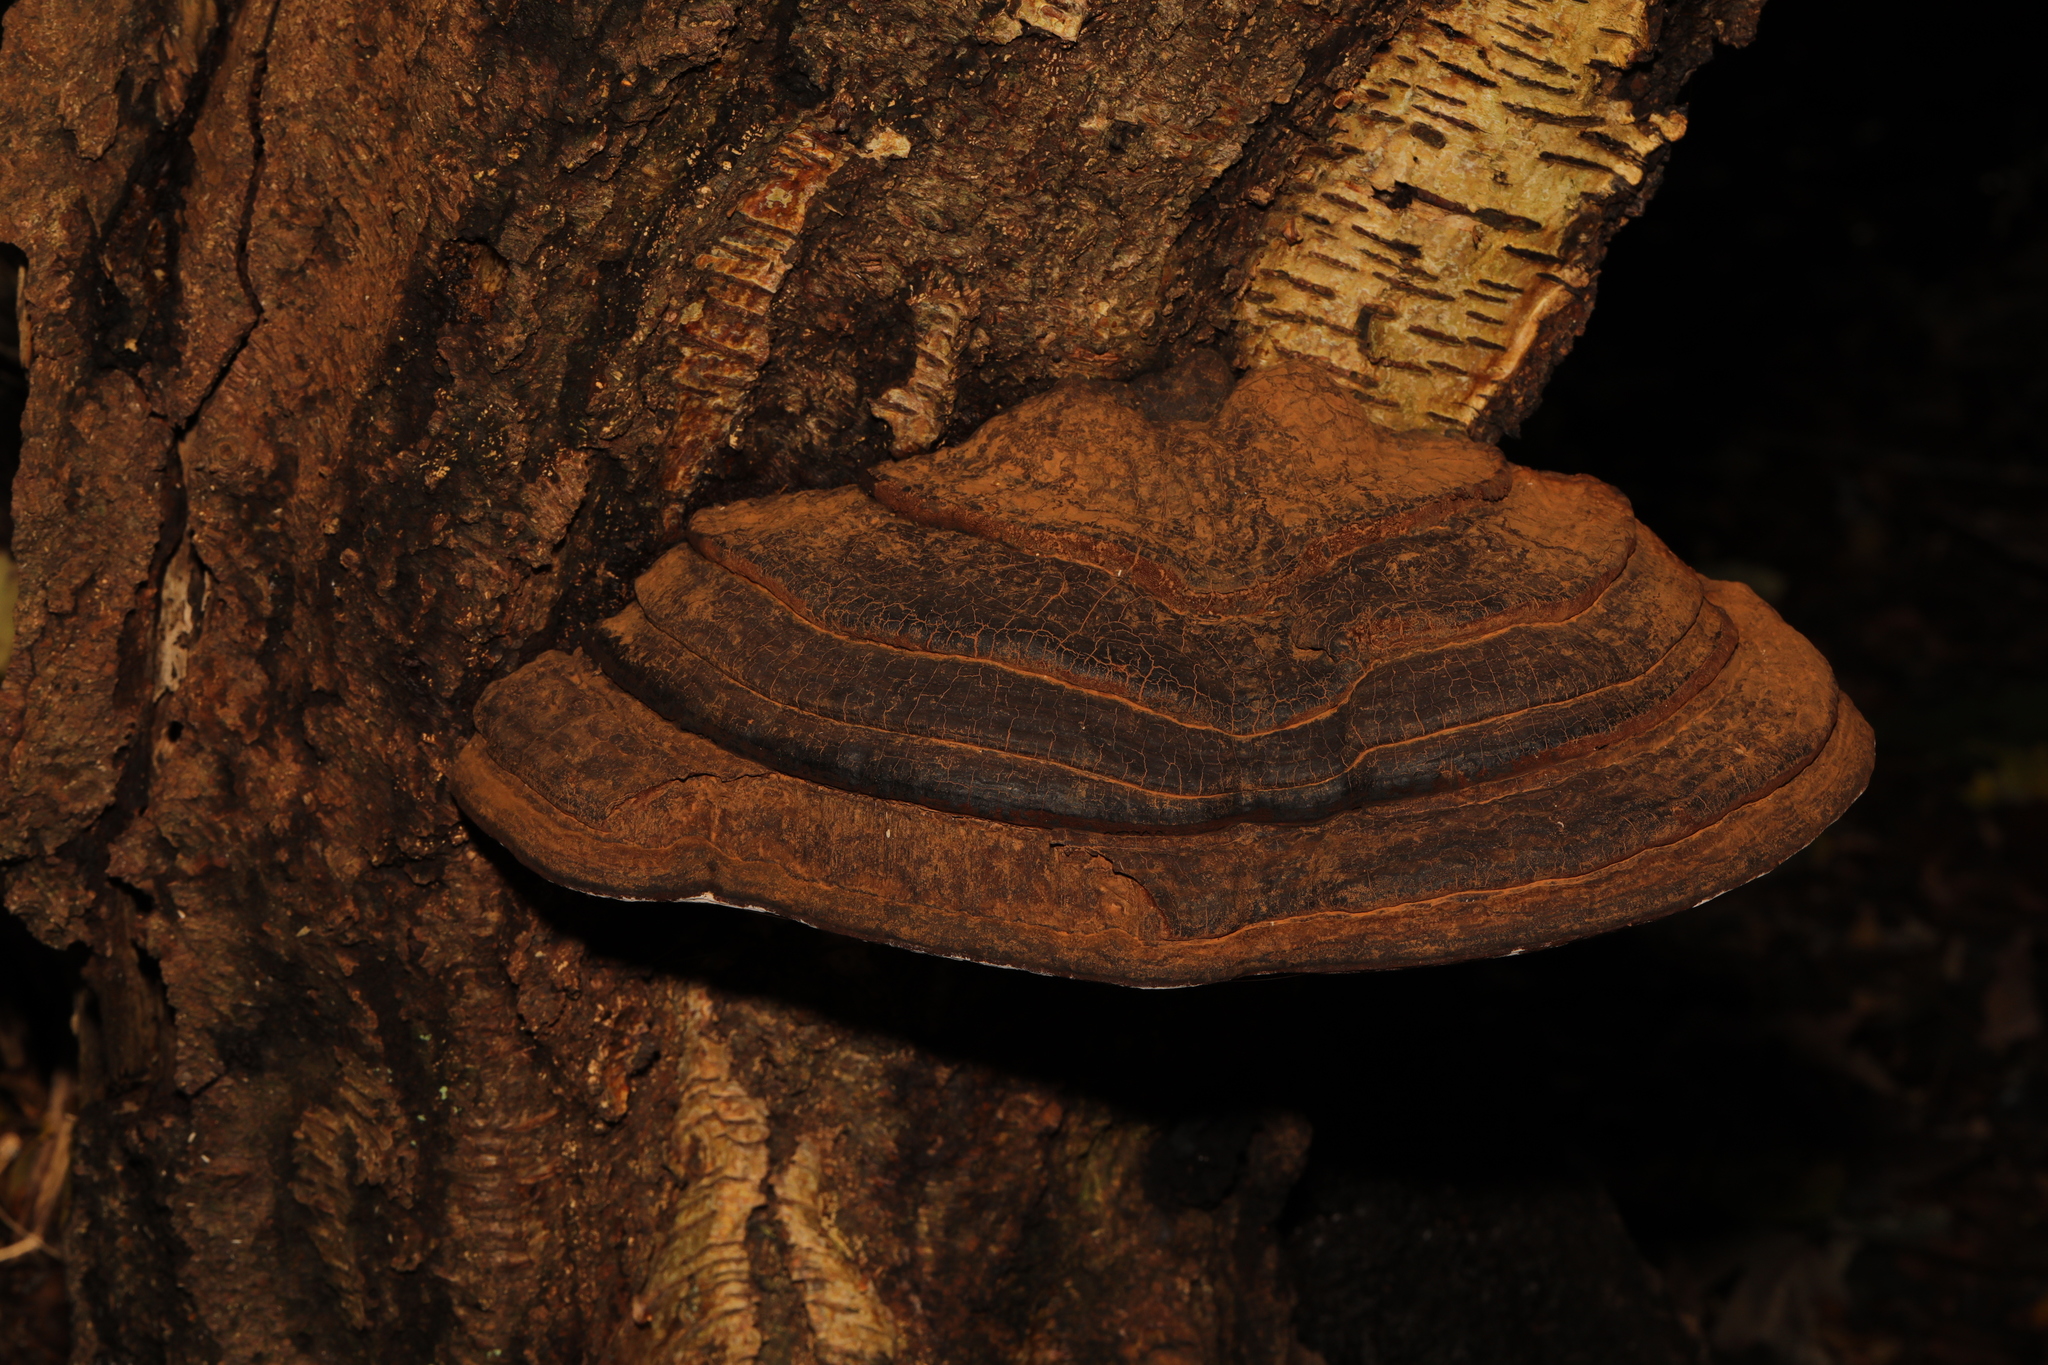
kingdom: Fungi
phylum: Basidiomycota
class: Agaricomycetes
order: Polyporales
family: Polyporaceae
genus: Ganoderma
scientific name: Ganoderma applanatum
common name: Artist's bracket
